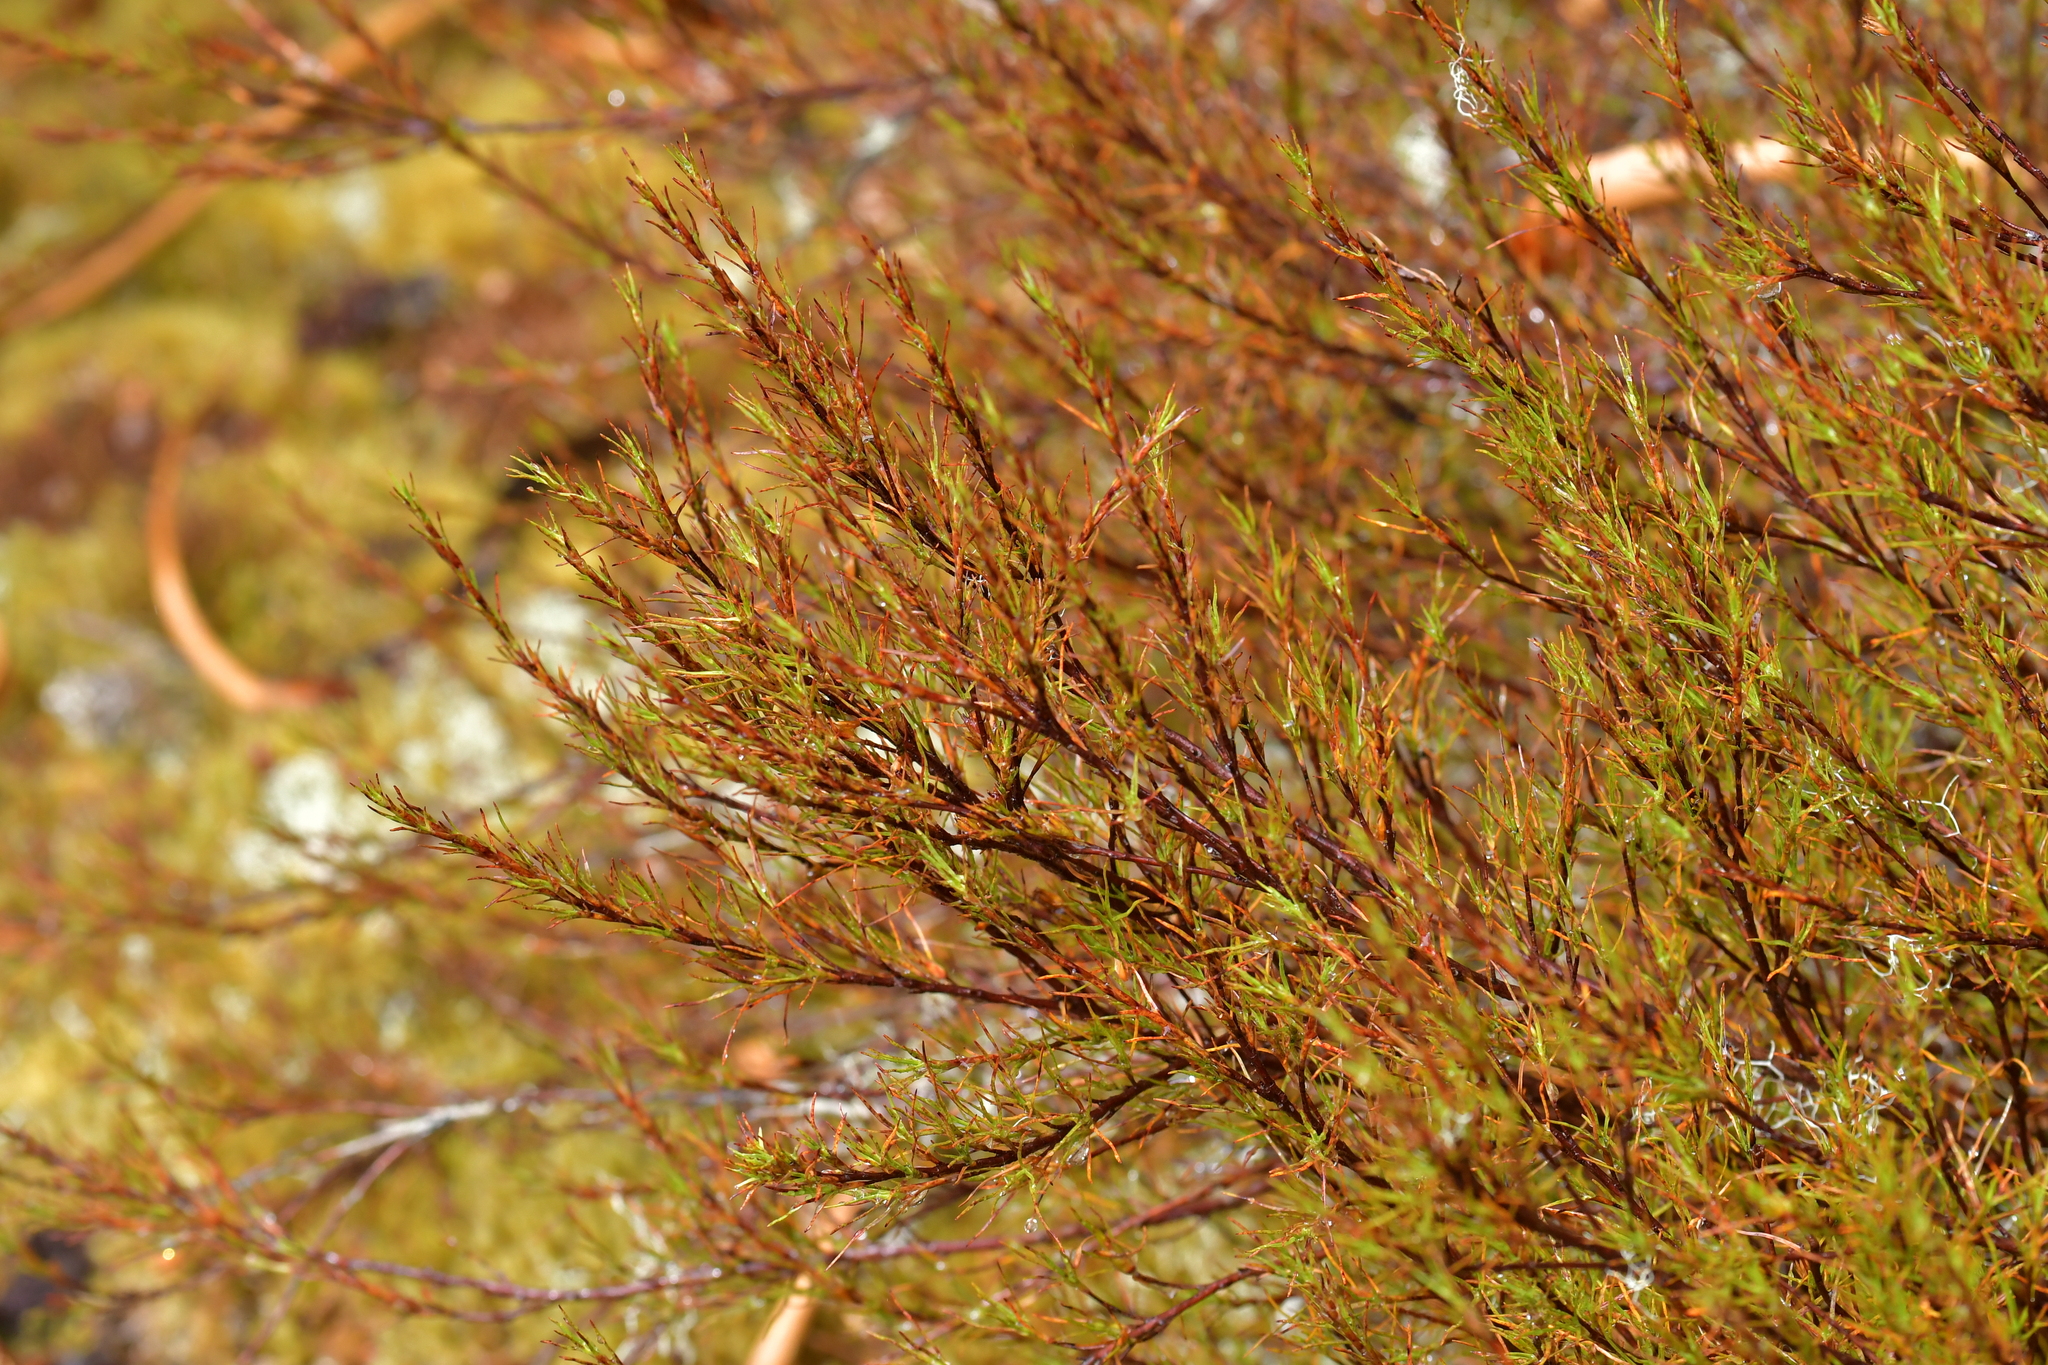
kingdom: Plantae
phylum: Tracheophyta
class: Magnoliopsida
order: Ericales
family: Ericaceae
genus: Dracophyllum
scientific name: Dracophyllum rosmarinifolium
